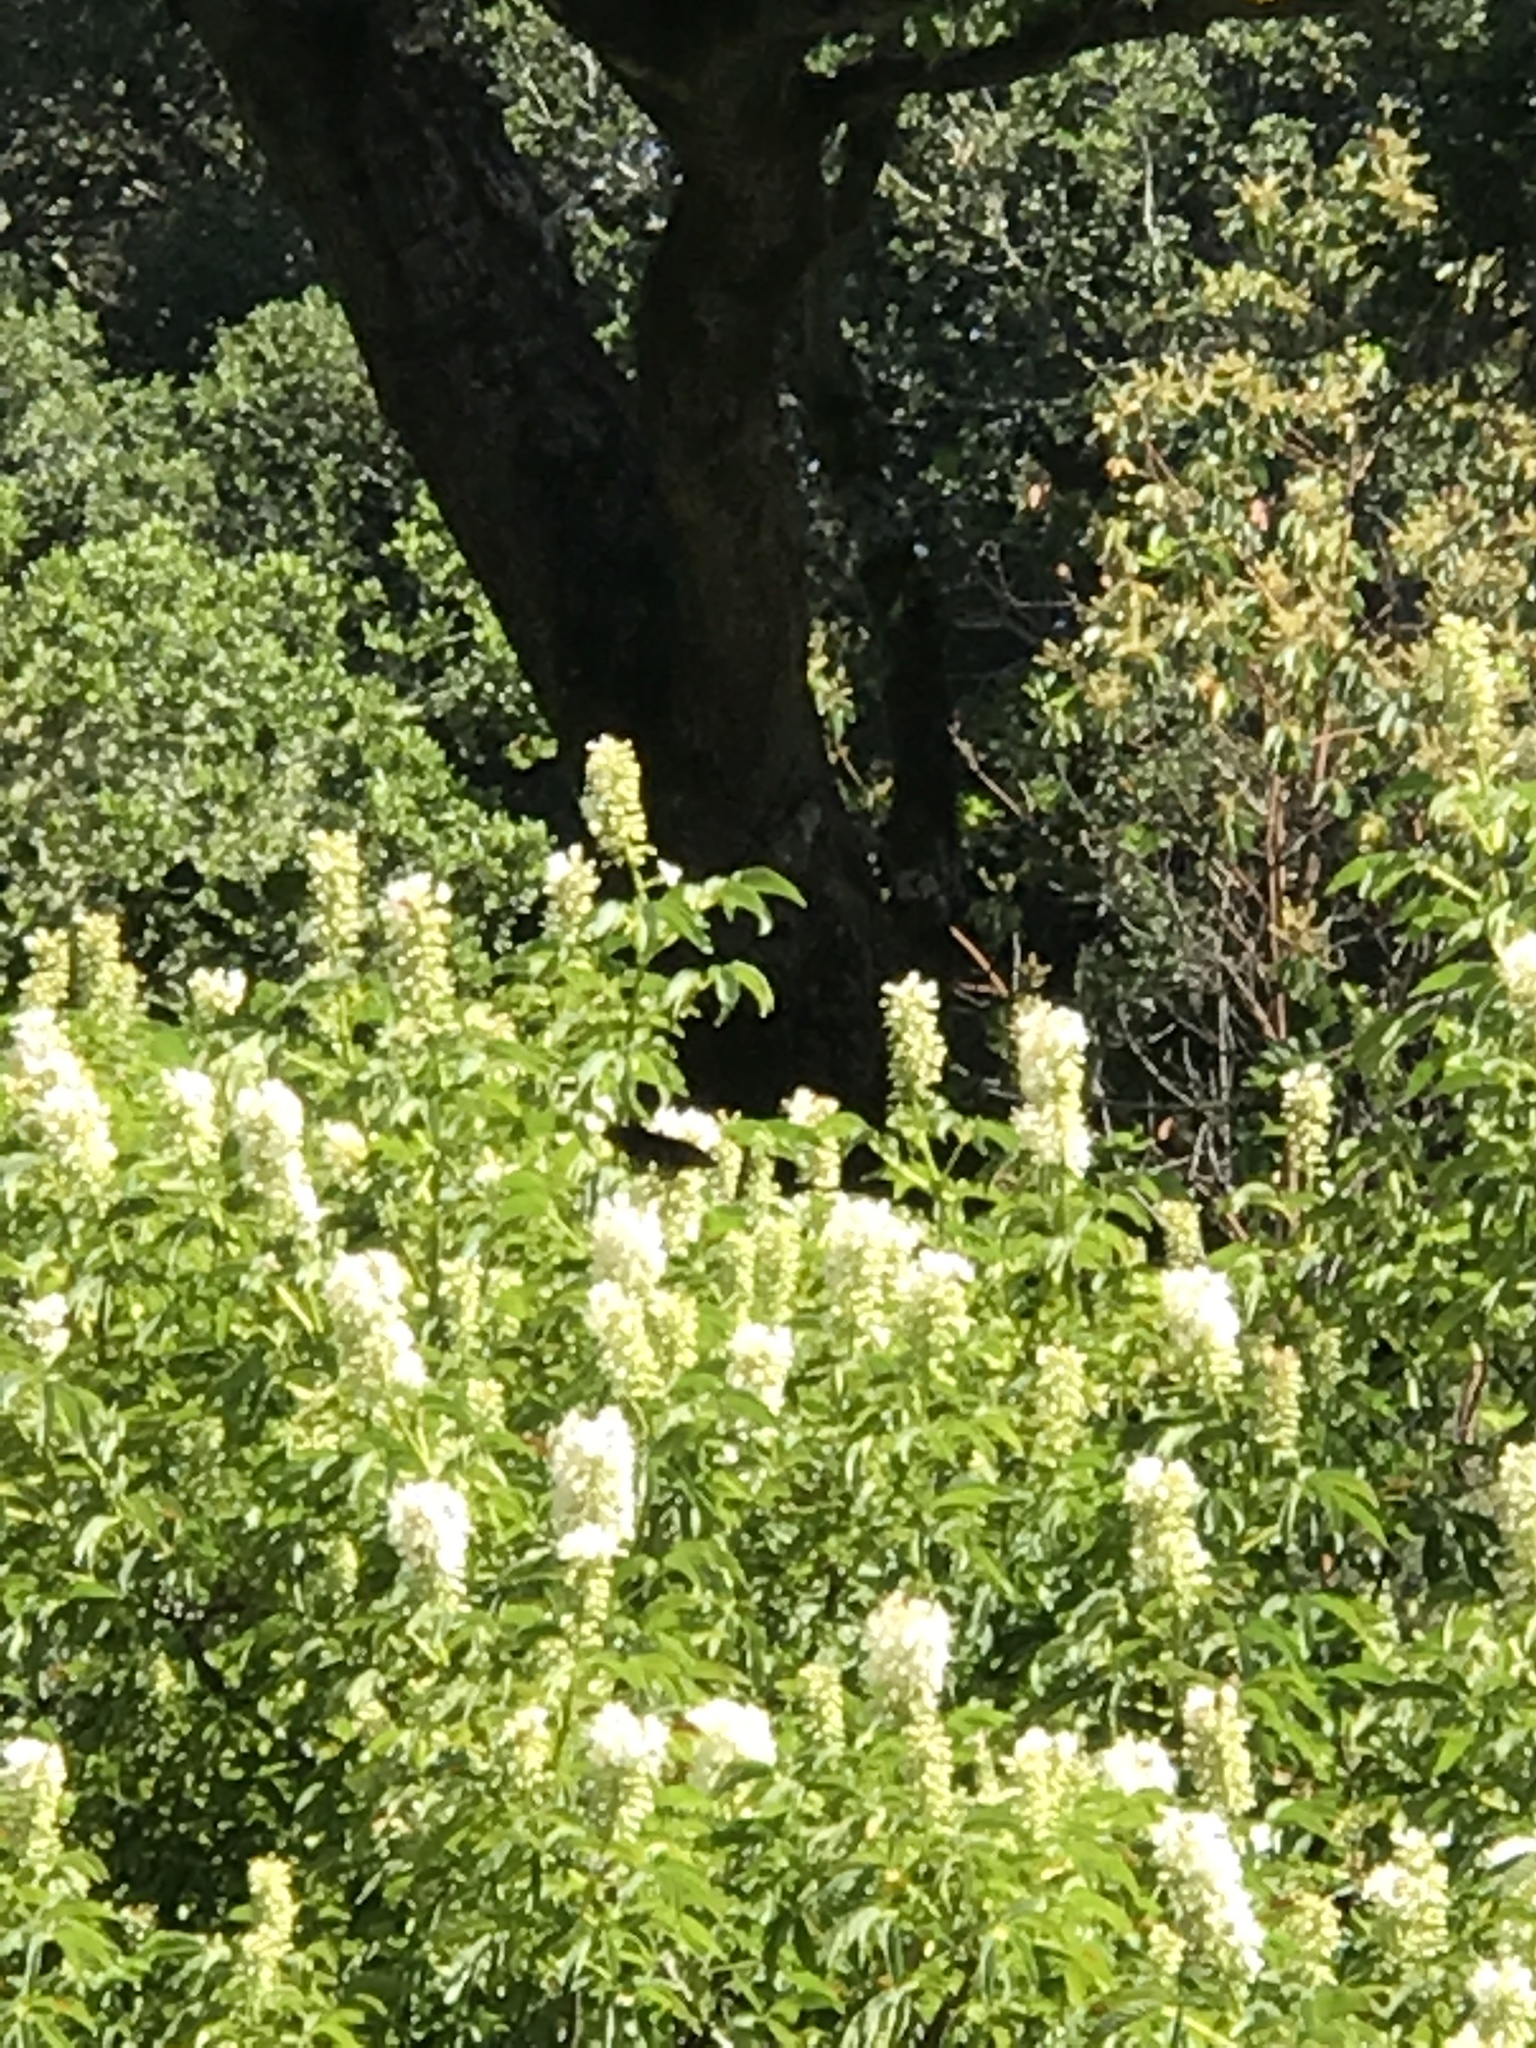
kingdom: Animalia
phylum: Arthropoda
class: Insecta
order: Lepidoptera
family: Papilionidae
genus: Battus
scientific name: Battus philenor
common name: Pipevine swallowtail
